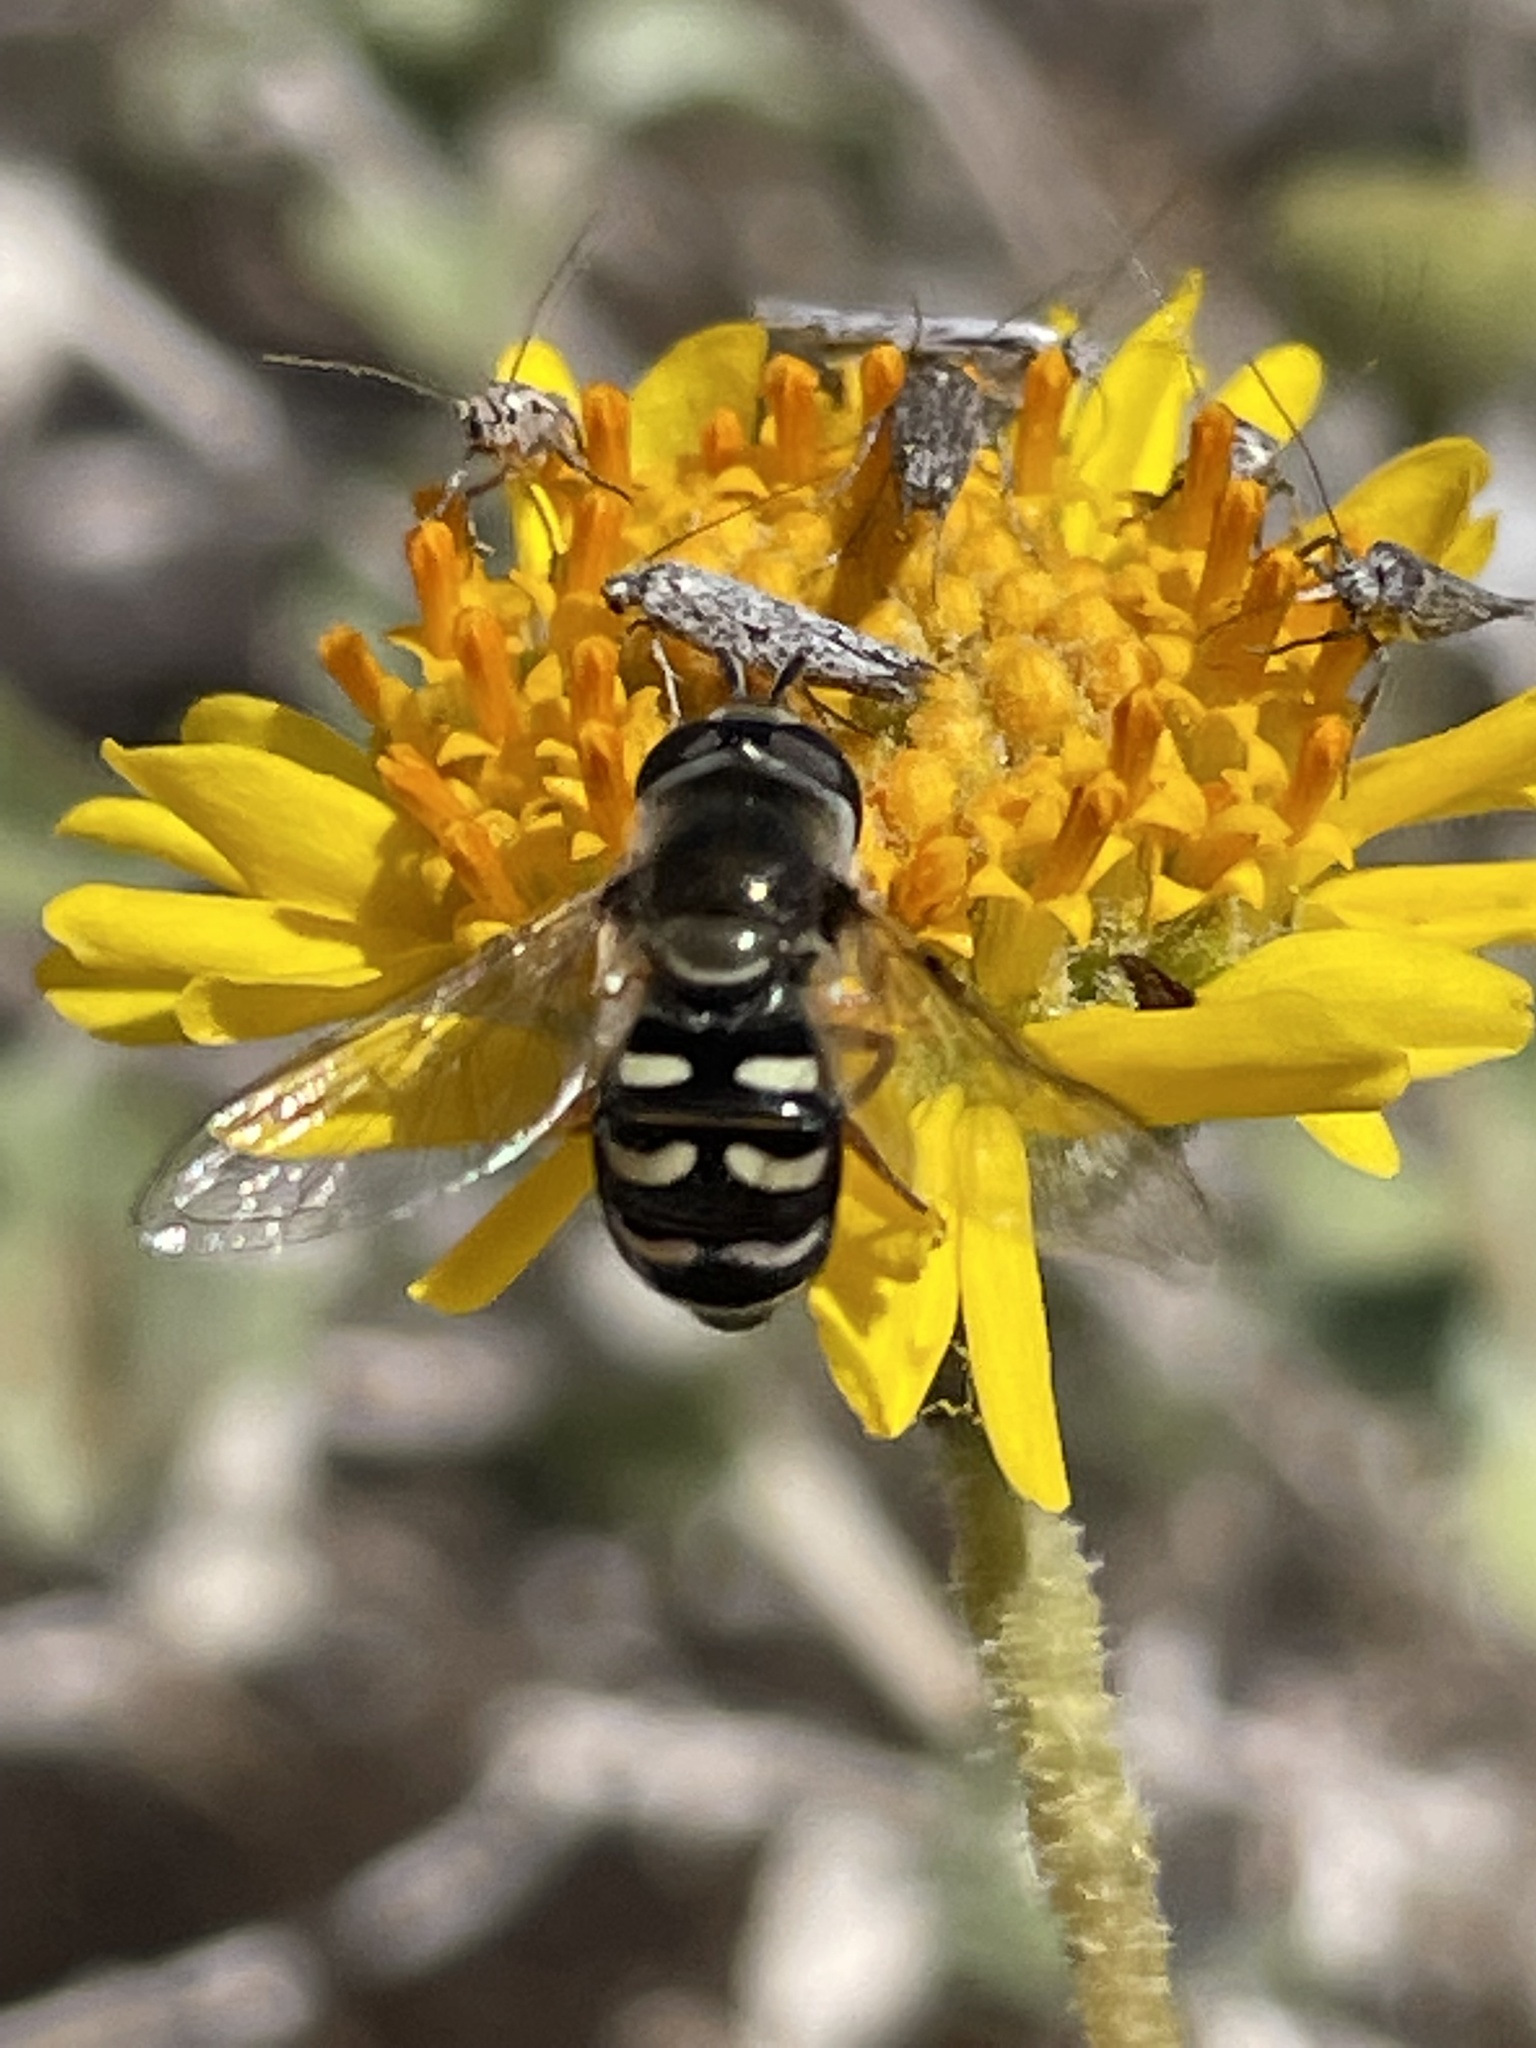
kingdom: Animalia
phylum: Arthropoda
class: Insecta
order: Diptera
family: Syrphidae
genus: Eupeodes
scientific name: Eupeodes volucris
